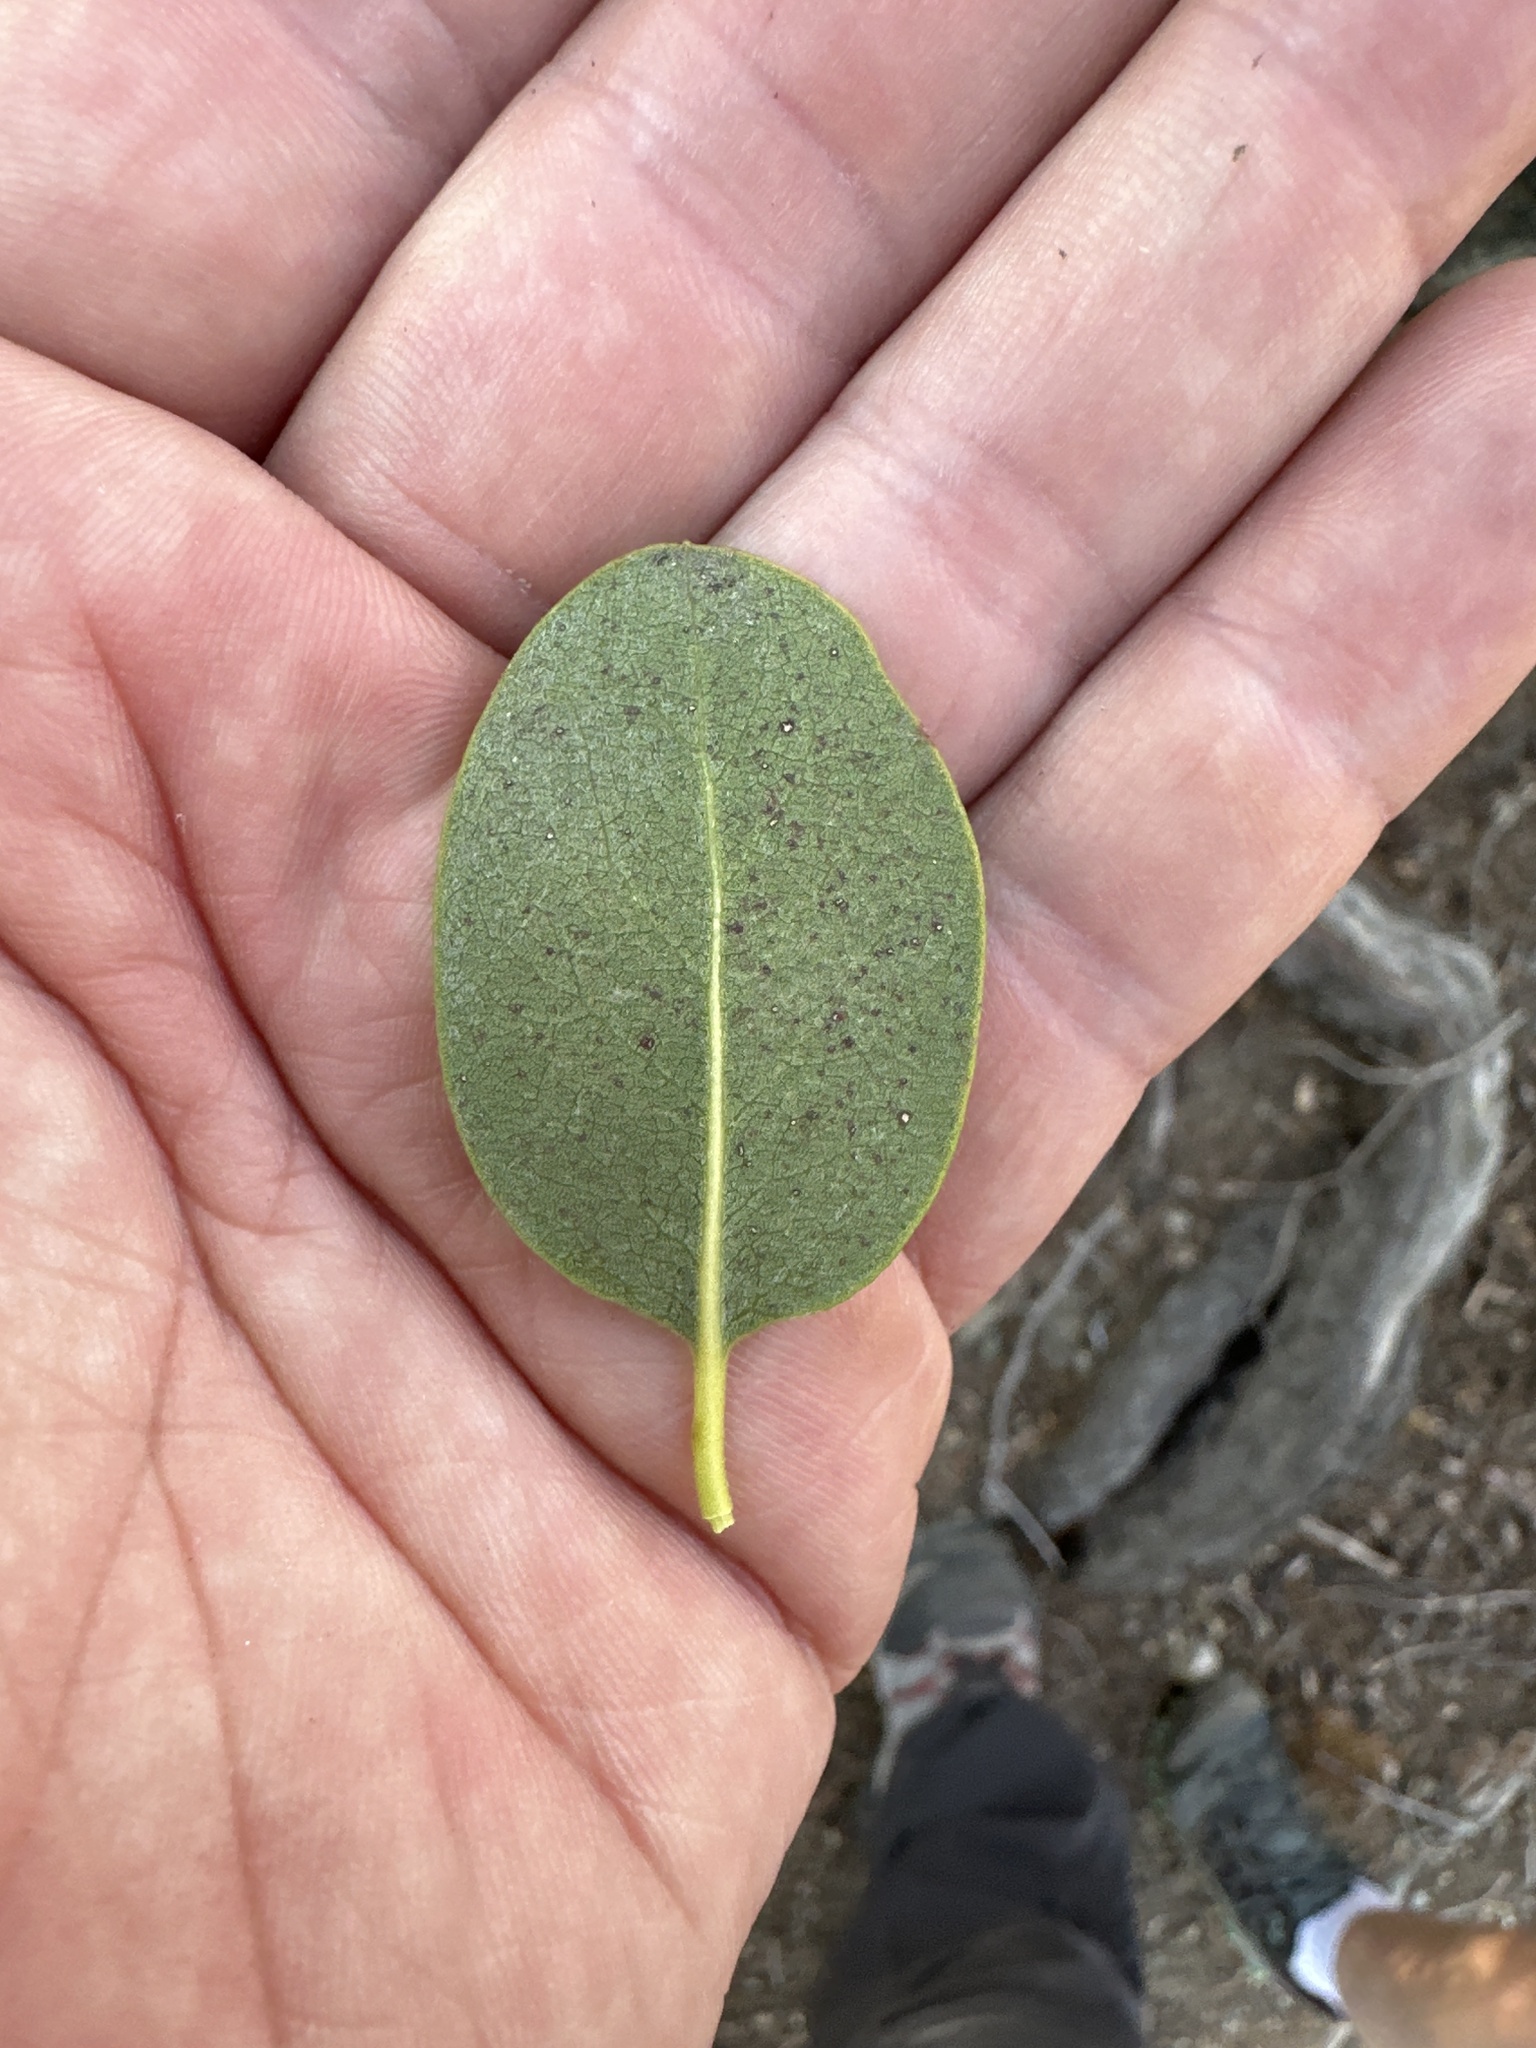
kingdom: Plantae
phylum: Tracheophyta
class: Magnoliopsida
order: Garryales
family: Garryaceae
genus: Garrya
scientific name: Garrya fremontii
